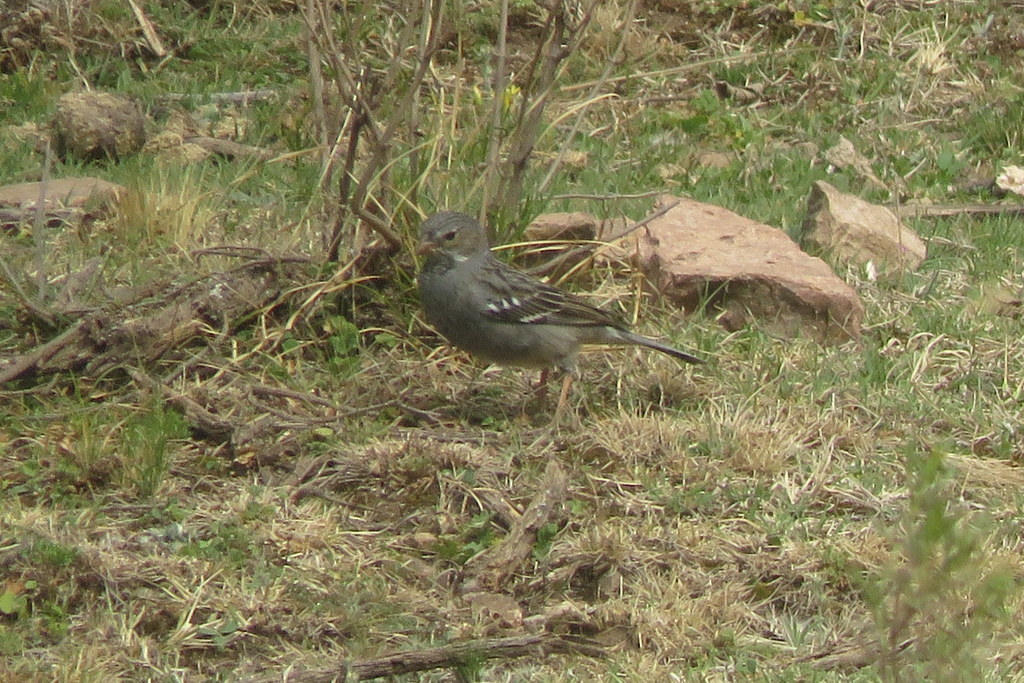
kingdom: Animalia
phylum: Chordata
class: Aves
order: Passeriformes
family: Thraupidae
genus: Rhopospina
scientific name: Rhopospina fruticeti
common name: Mourning sierra finch
